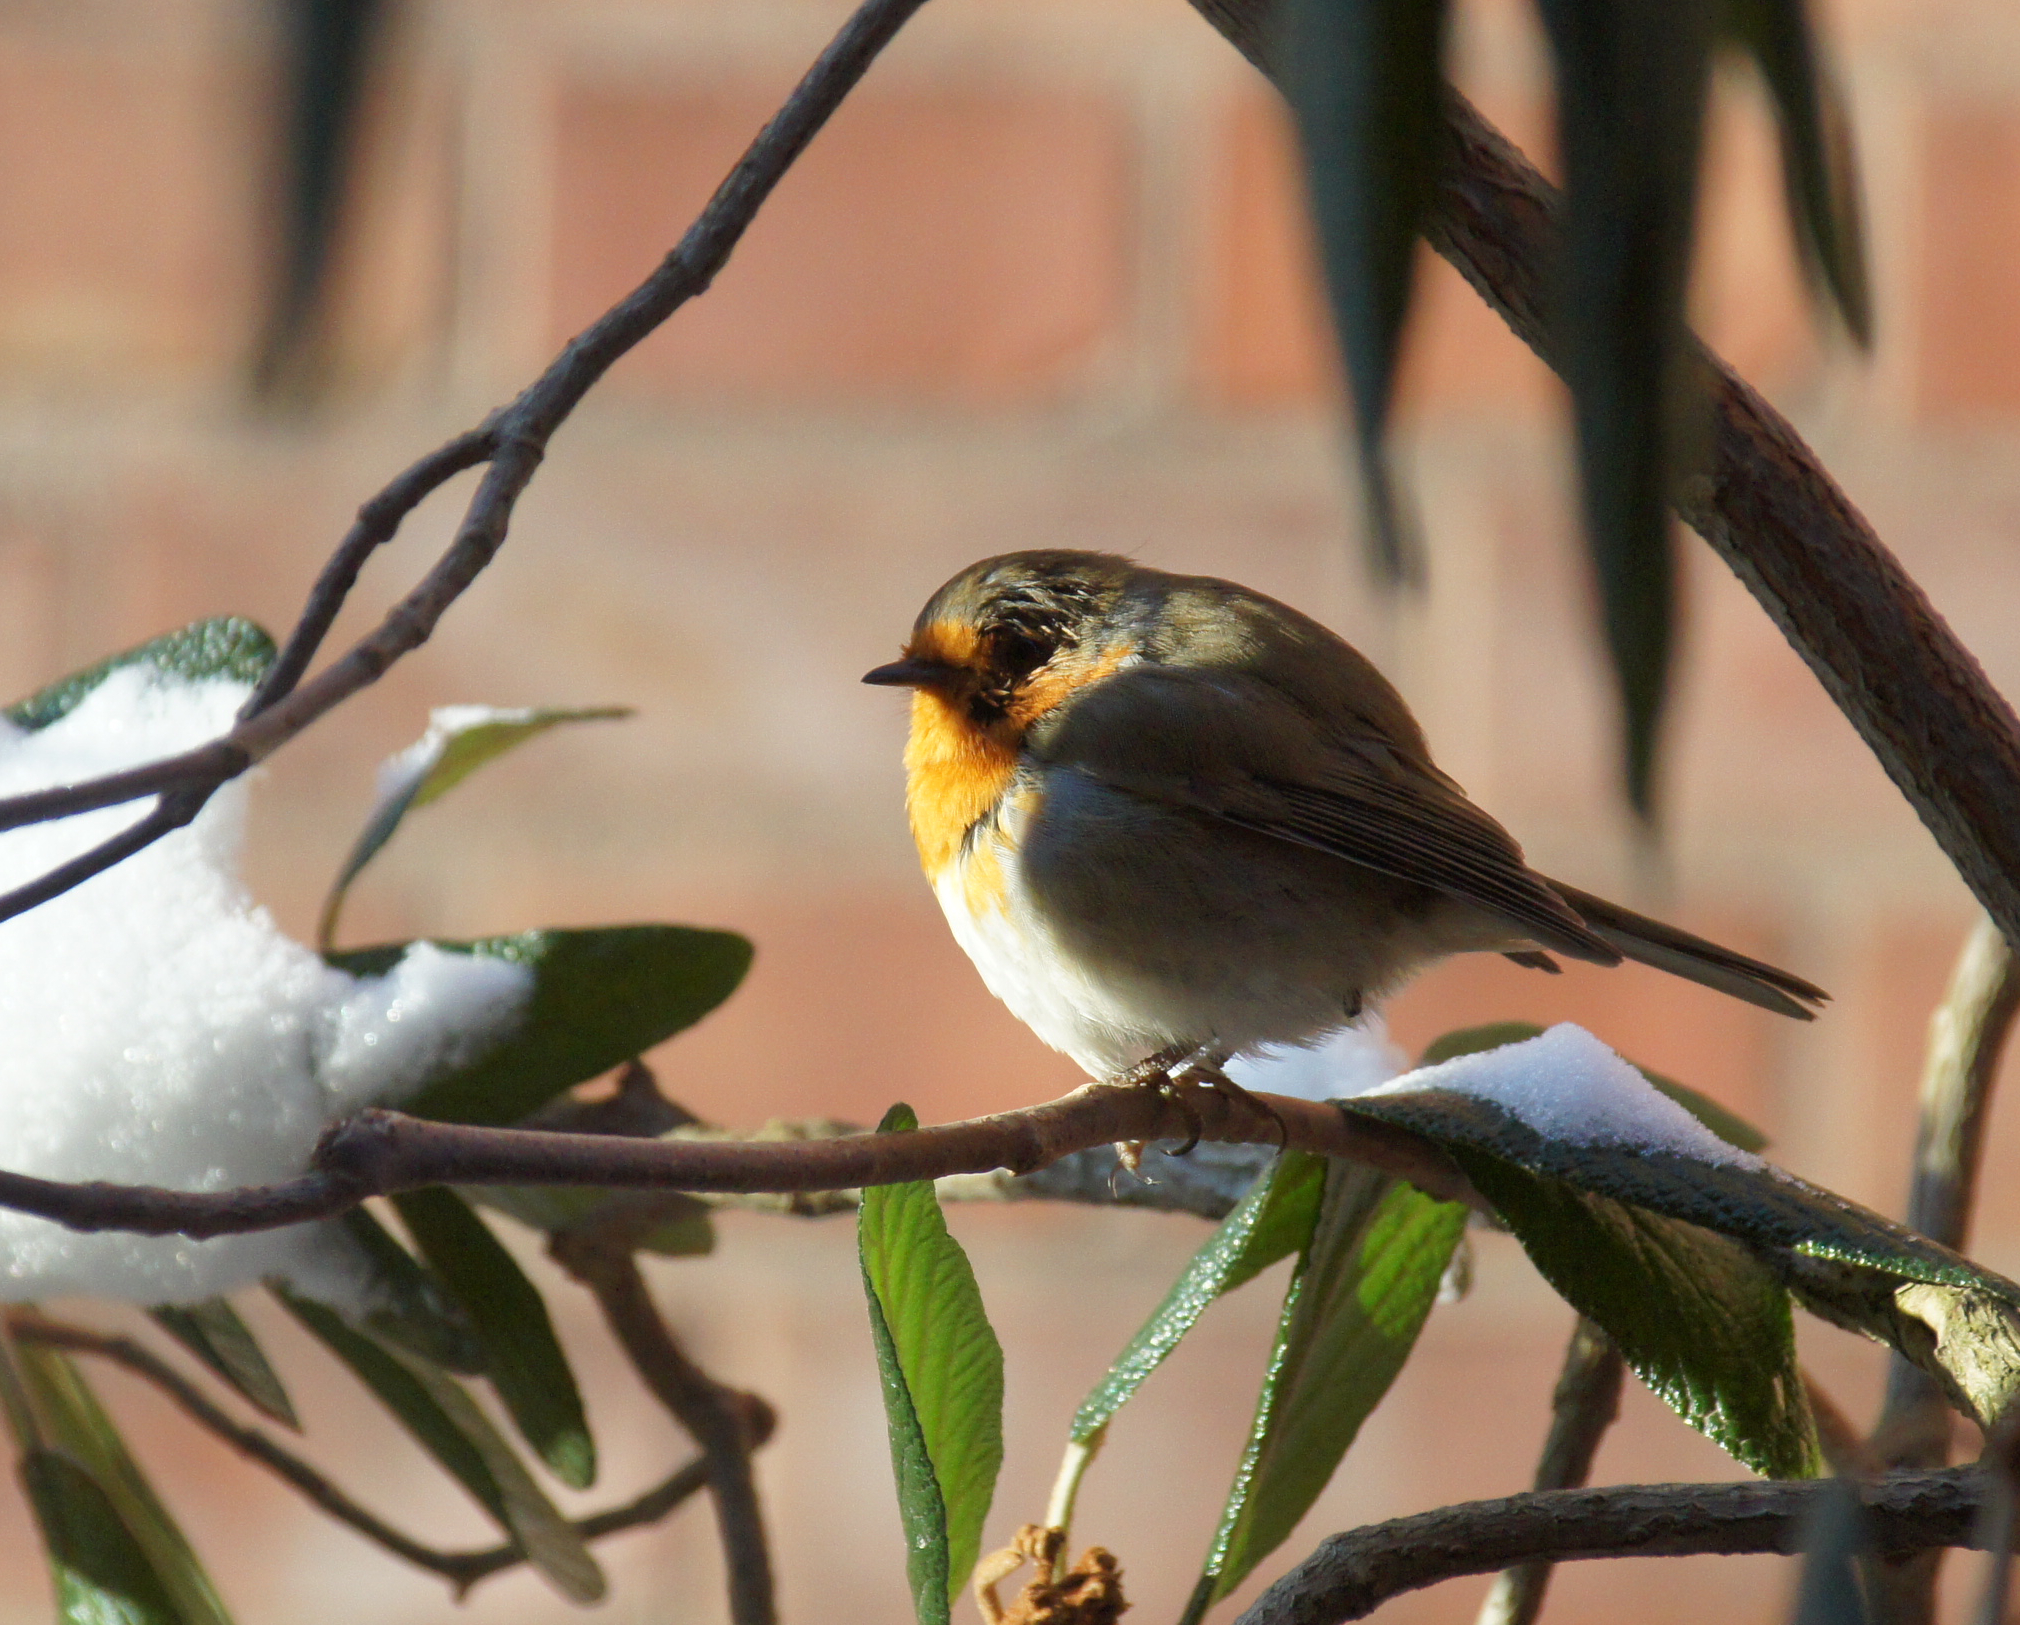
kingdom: Animalia
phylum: Chordata
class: Aves
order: Passeriformes
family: Muscicapidae
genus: Erithacus
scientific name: Erithacus rubecula
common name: European robin
